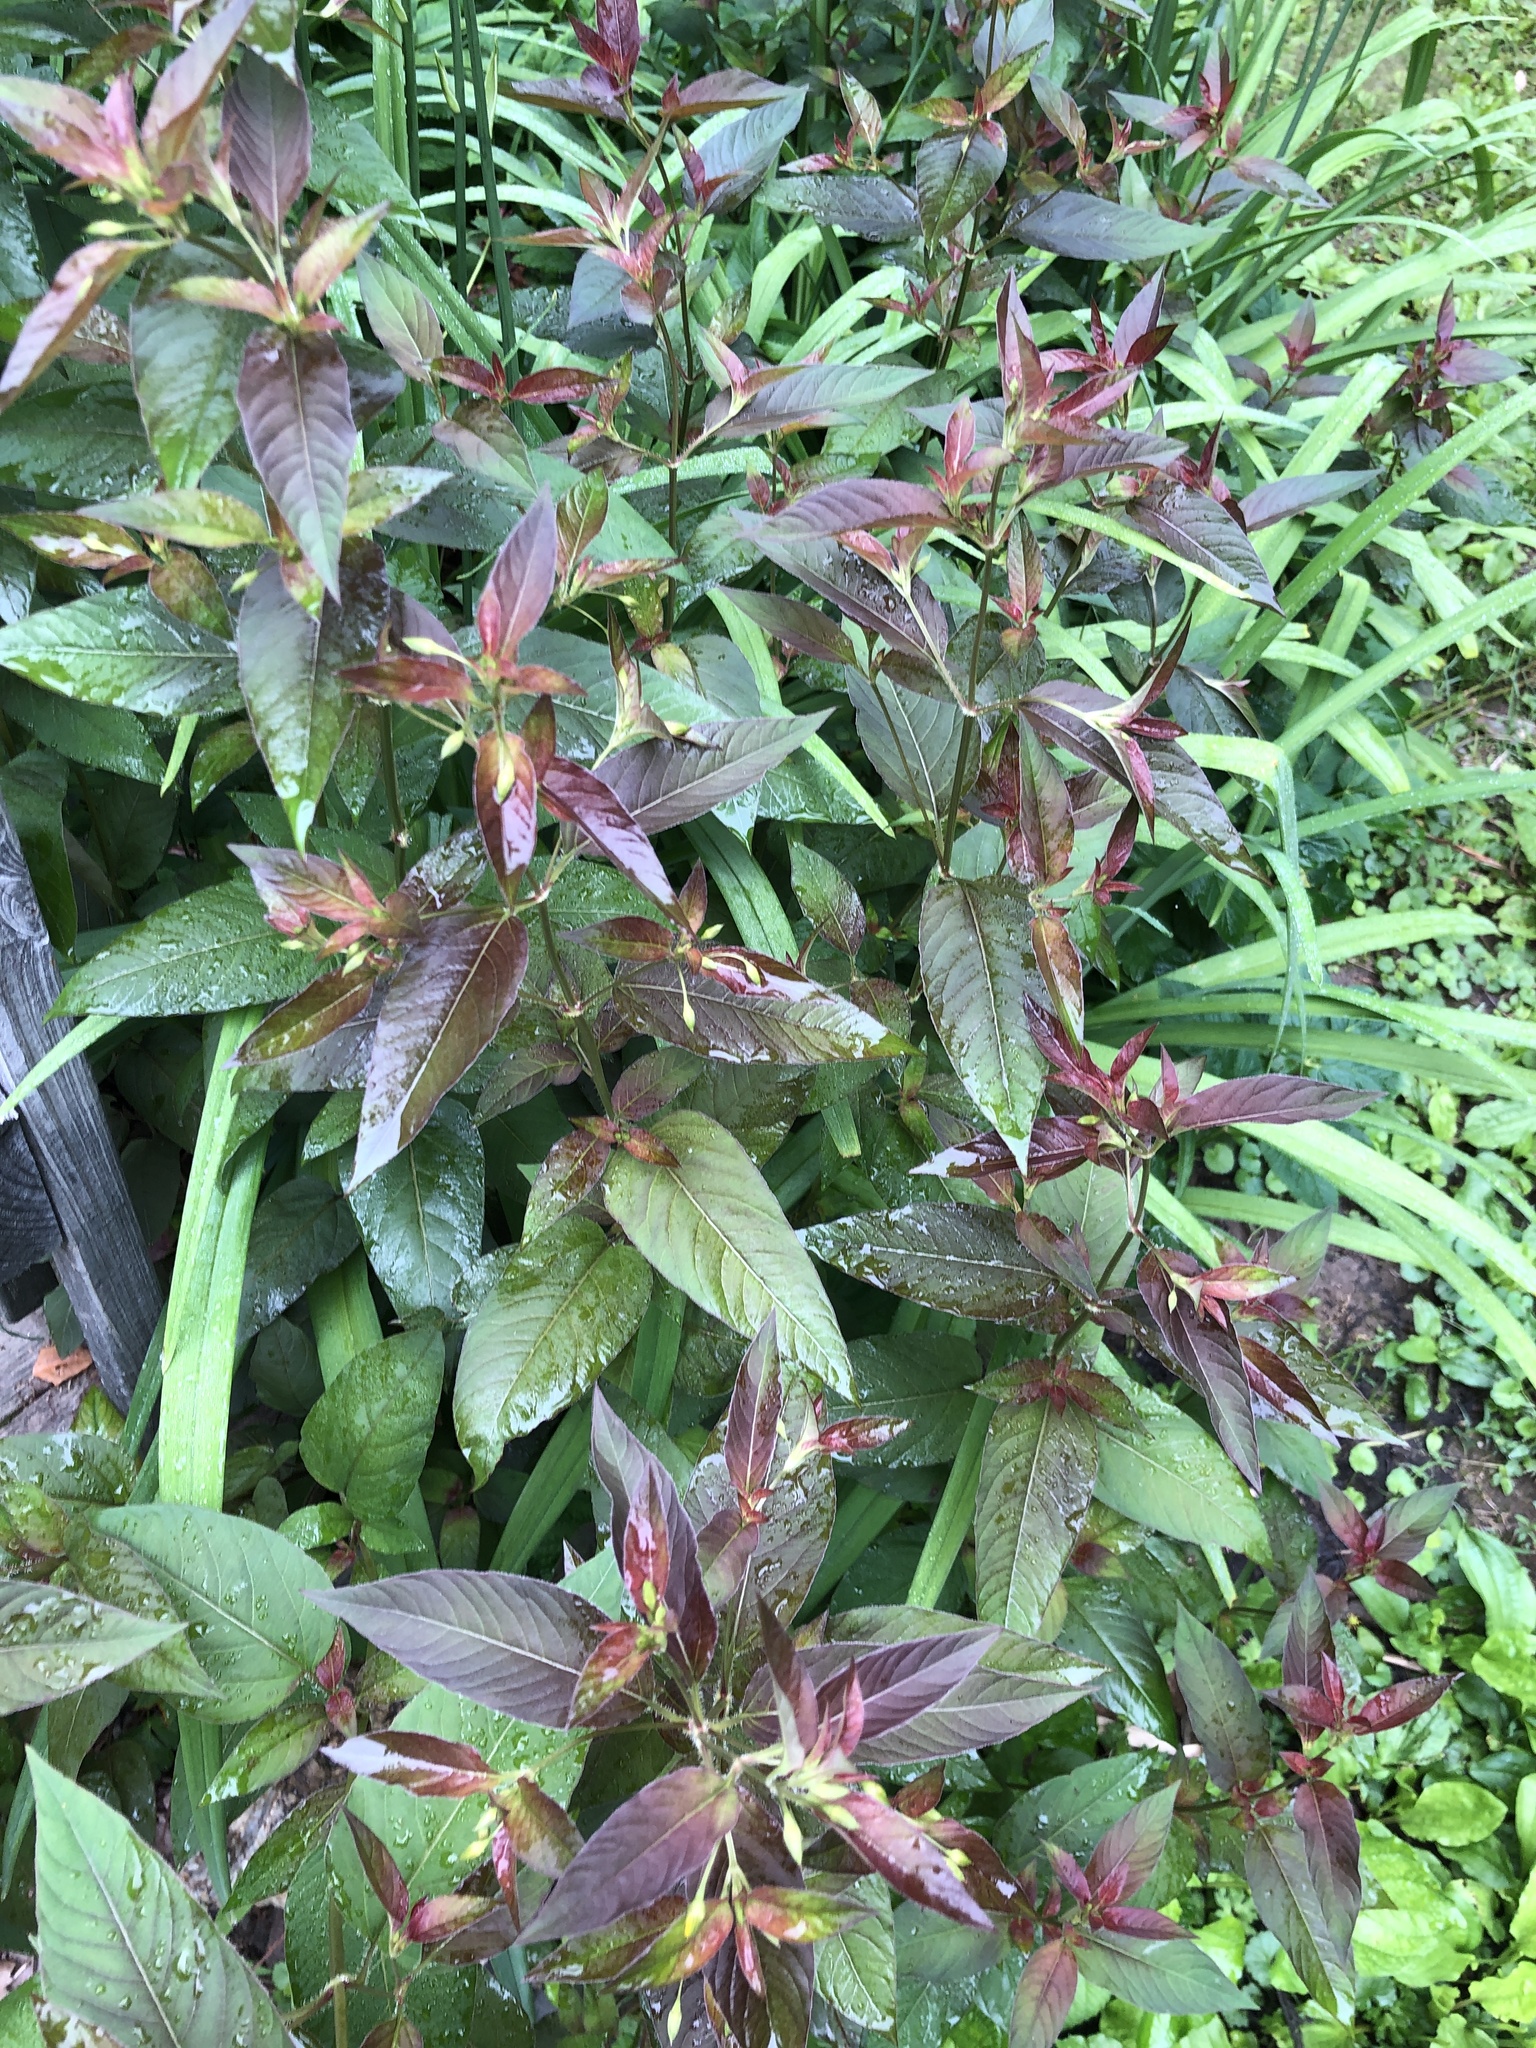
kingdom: Plantae
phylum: Tracheophyta
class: Magnoliopsida
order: Ericales
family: Primulaceae
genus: Lysimachia
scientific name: Lysimachia ciliata
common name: Fringed loosestrife
